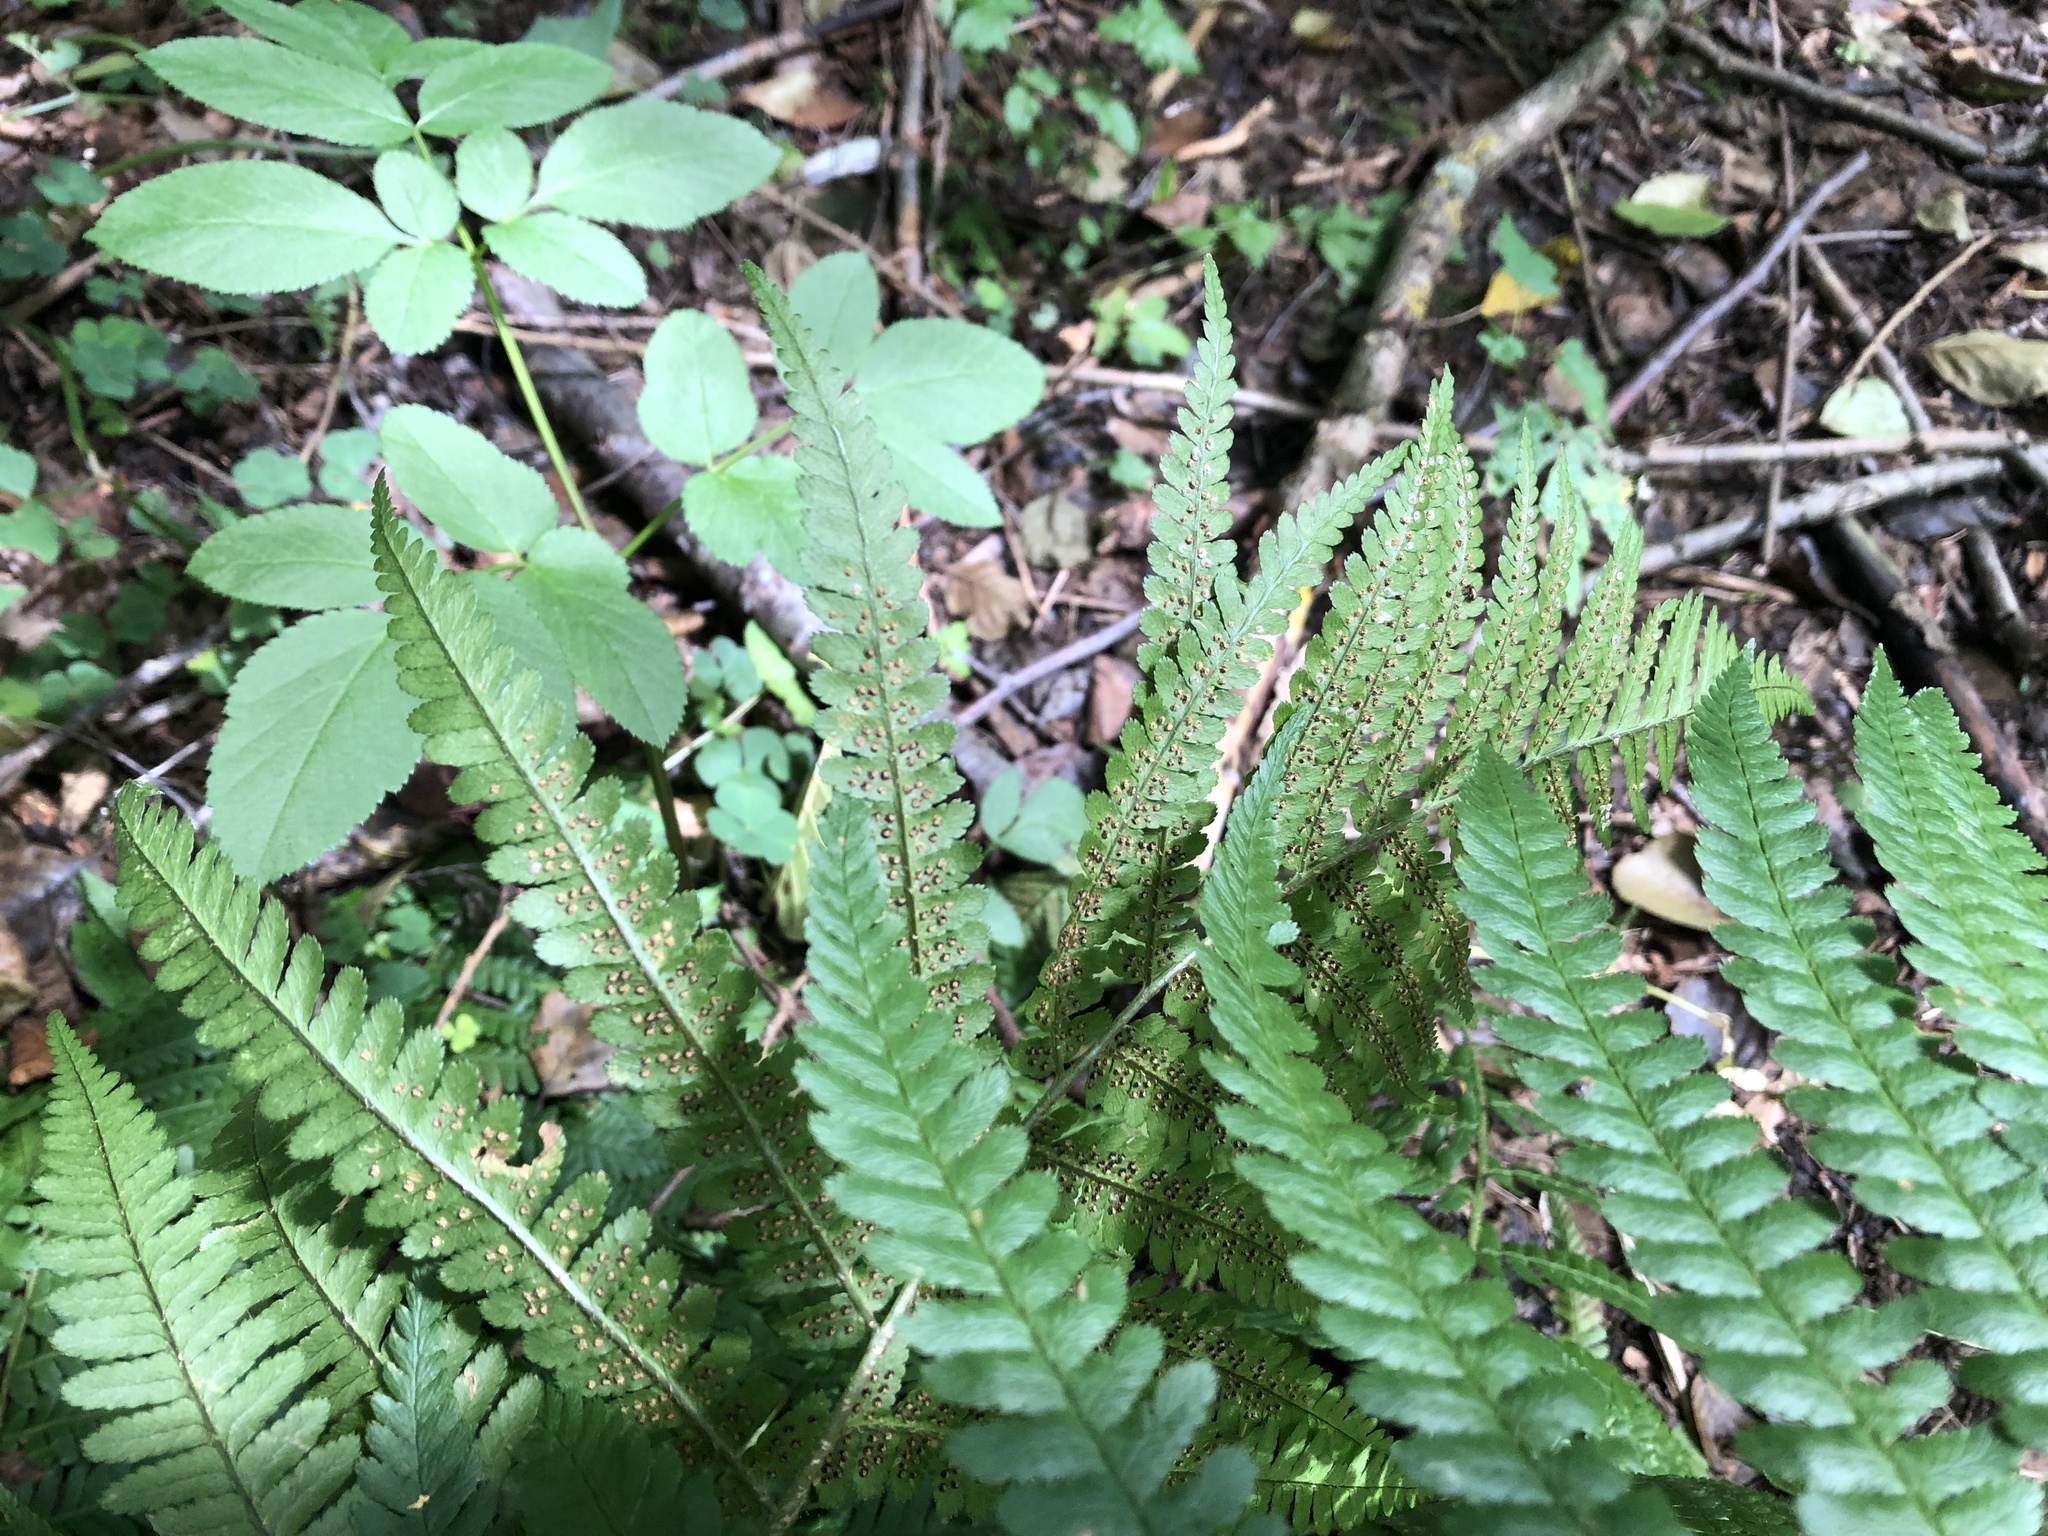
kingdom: Plantae
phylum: Tracheophyta
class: Polypodiopsida
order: Polypodiales
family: Dryopteridaceae
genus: Dryopteris
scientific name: Dryopteris filix-mas
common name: Male fern
